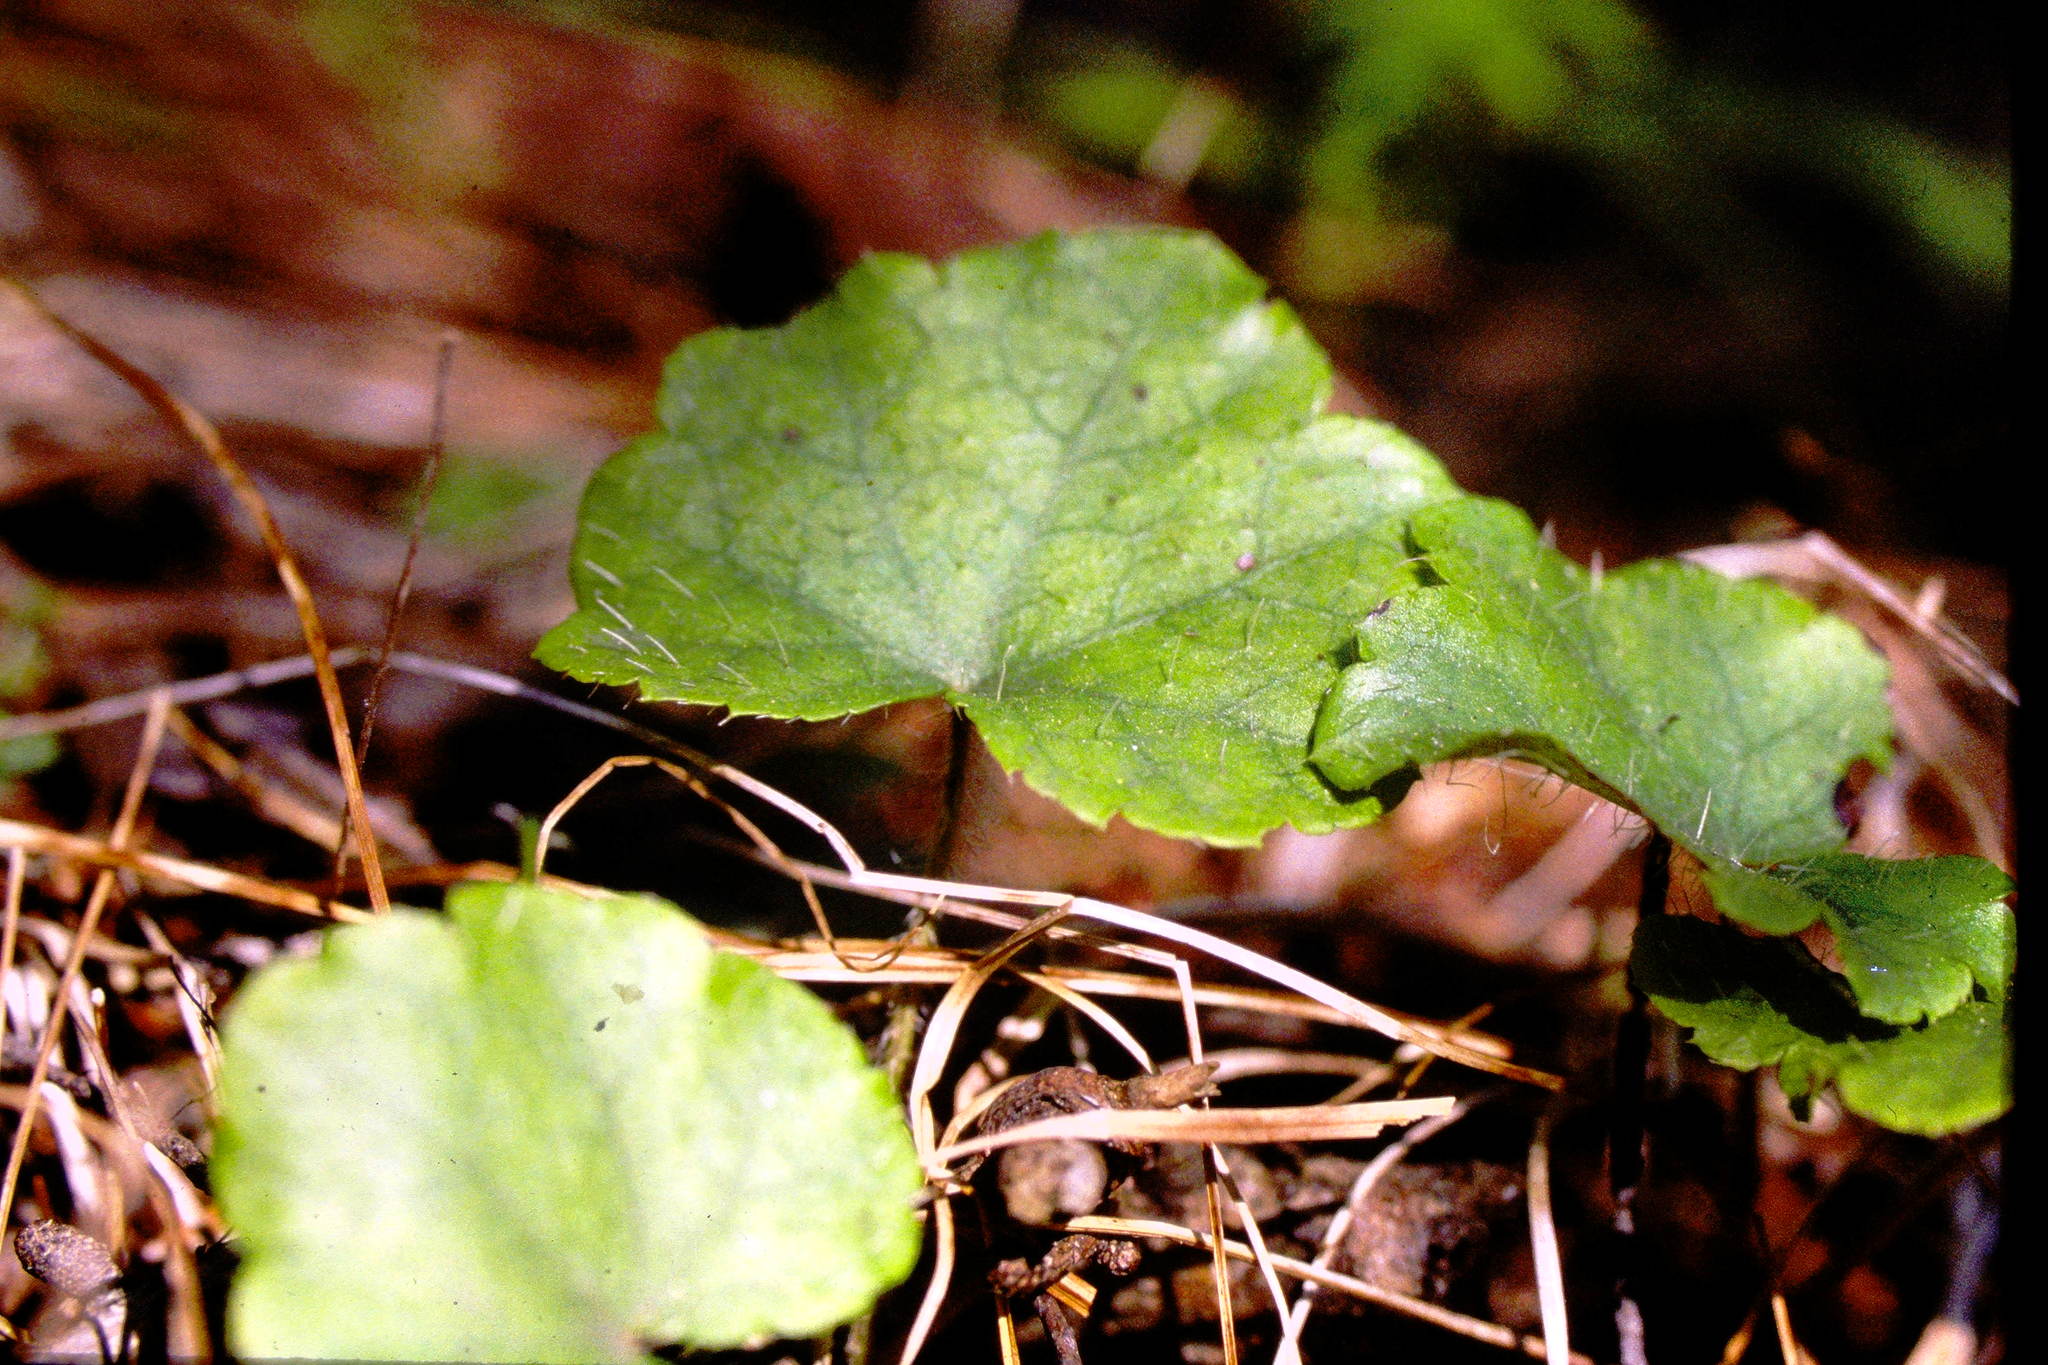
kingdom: Plantae
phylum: Tracheophyta
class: Magnoliopsida
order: Saxifragales
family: Saxifragaceae
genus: Mitella
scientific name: Mitella nuda
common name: Bare-stemmed bishop's-cap
